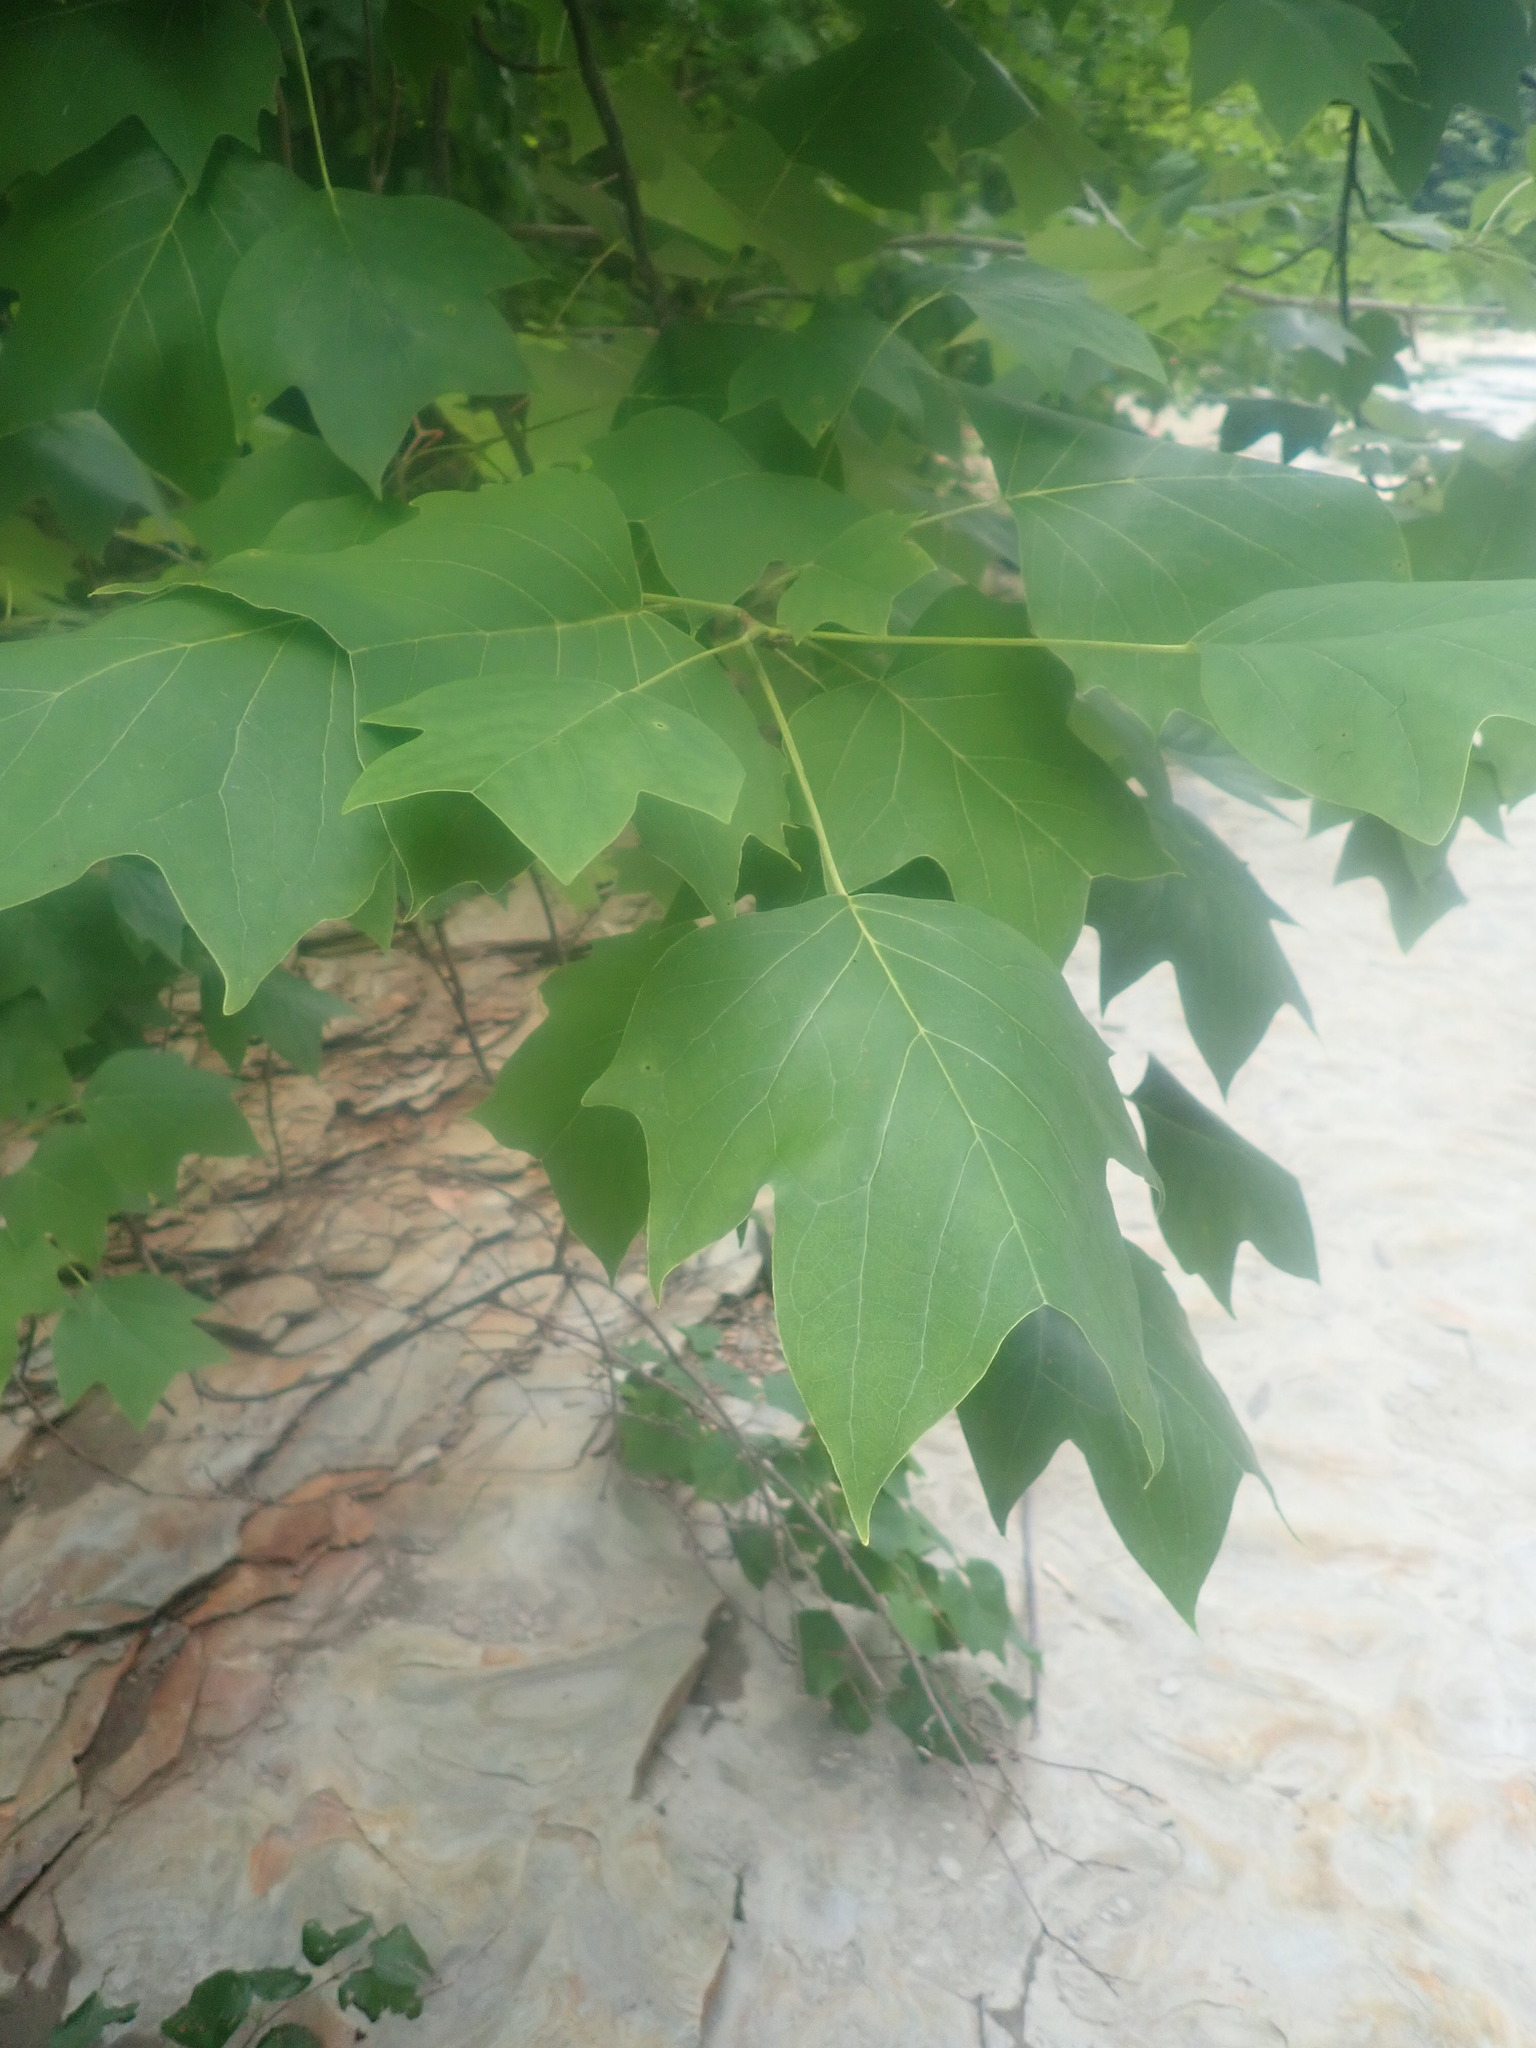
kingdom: Plantae
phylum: Tracheophyta
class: Magnoliopsida
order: Magnoliales
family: Magnoliaceae
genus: Liriodendron
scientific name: Liriodendron tulipifera
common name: Tulip tree
